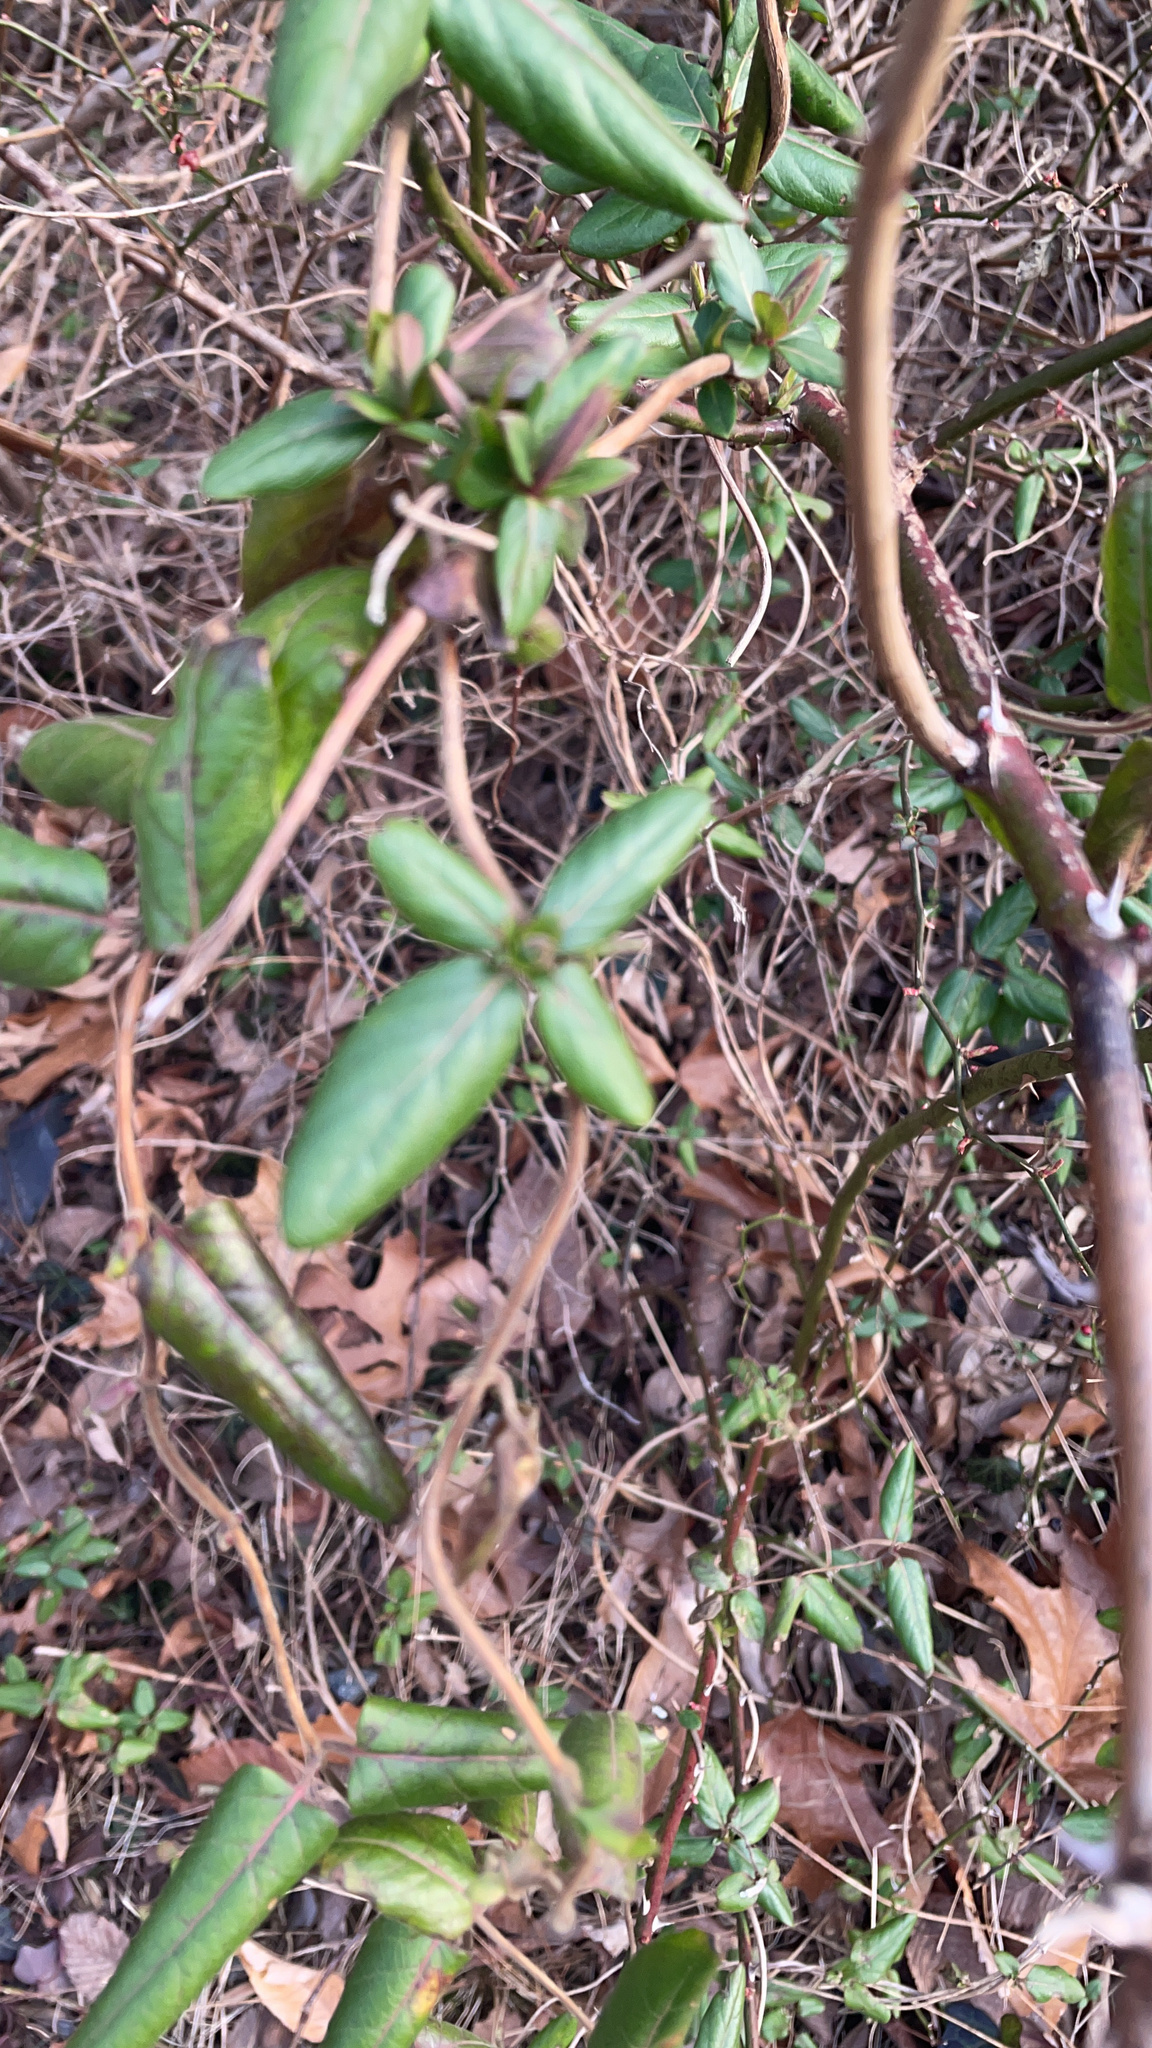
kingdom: Plantae
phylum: Tracheophyta
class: Magnoliopsida
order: Dipsacales
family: Caprifoliaceae
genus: Lonicera
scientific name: Lonicera japonica
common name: Japanese honeysuckle
